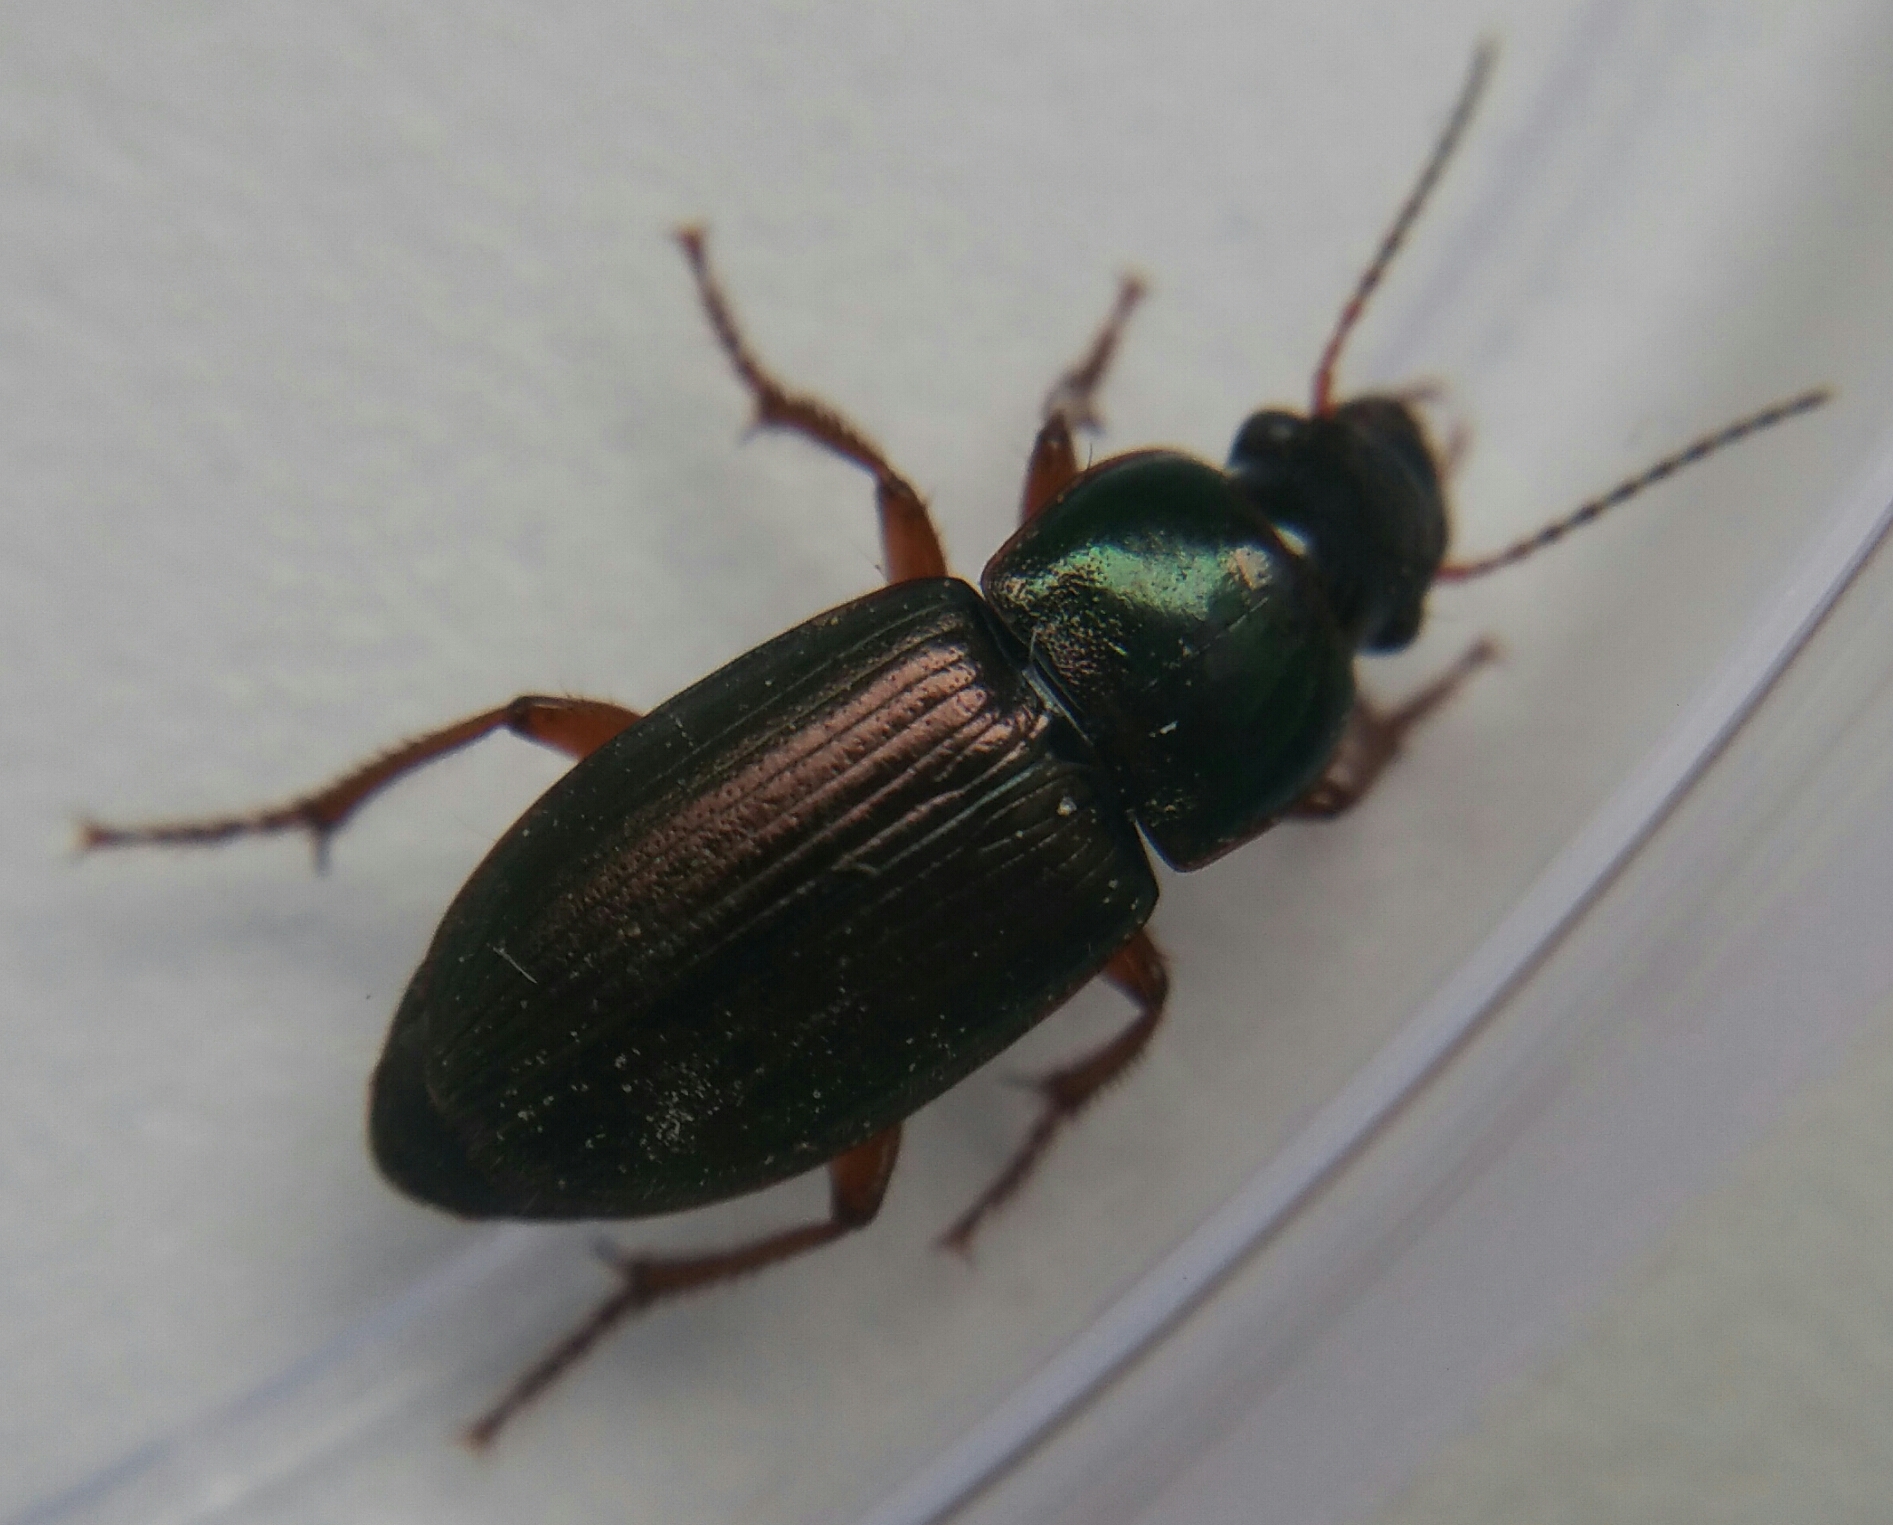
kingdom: Animalia
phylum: Arthropoda
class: Insecta
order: Coleoptera
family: Carabidae
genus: Harpalus
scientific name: Harpalus affinis
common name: Polychrome harp ground beetle
